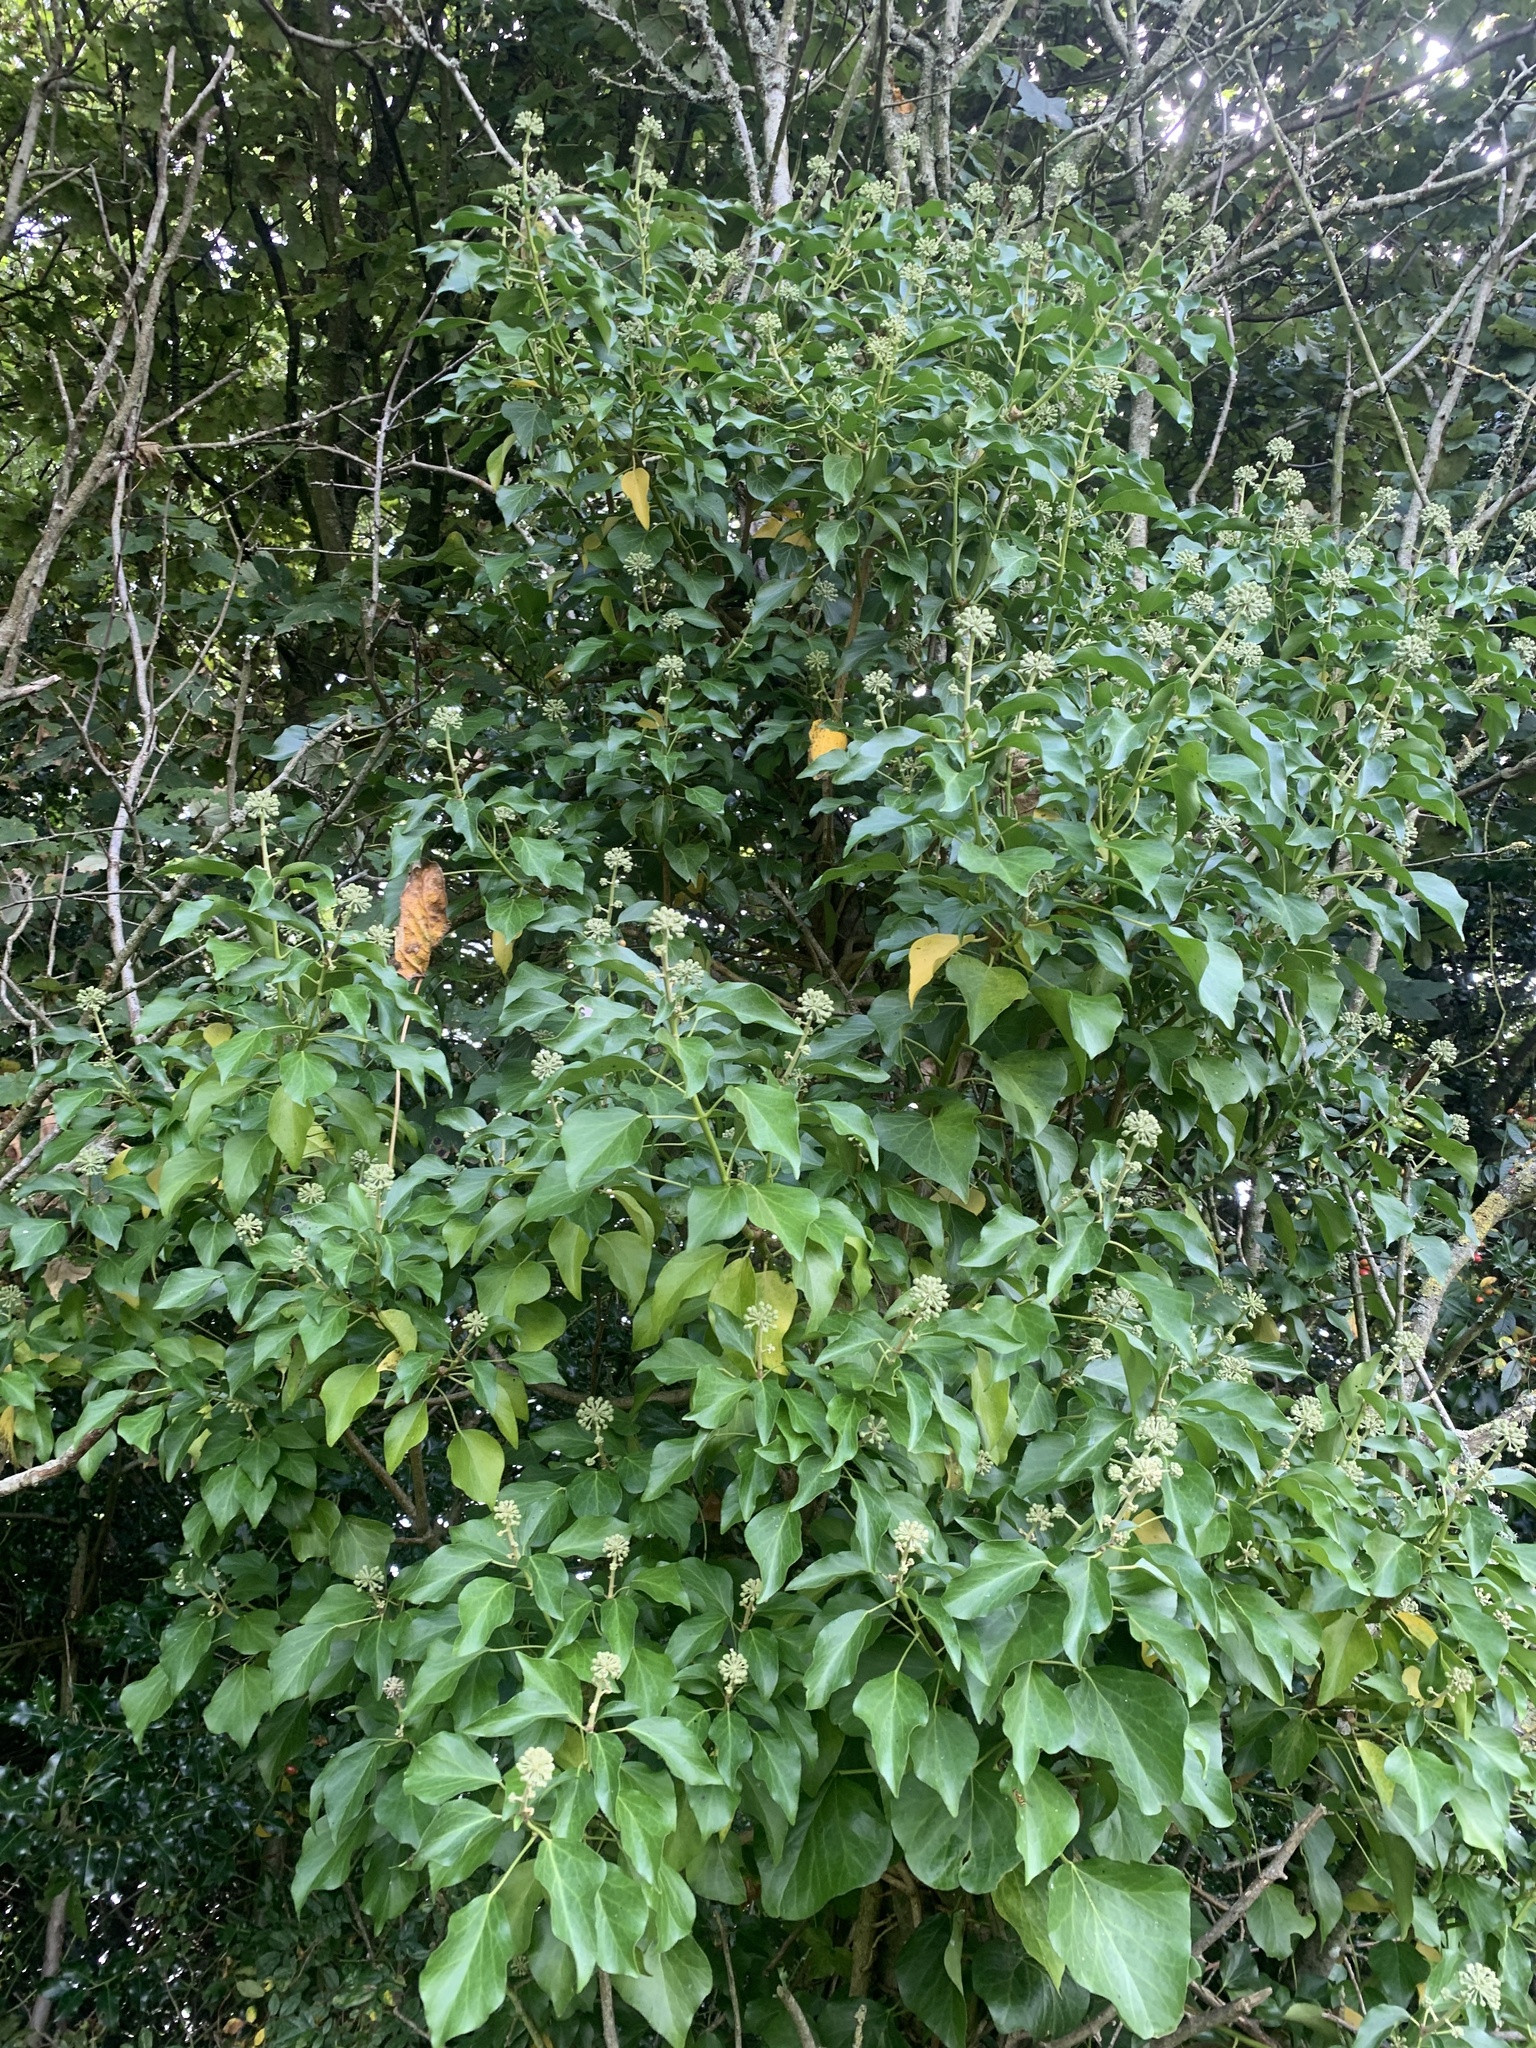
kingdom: Plantae
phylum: Tracheophyta
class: Magnoliopsida
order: Apiales
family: Araliaceae
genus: Hedera
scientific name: Hedera helix
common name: Ivy
